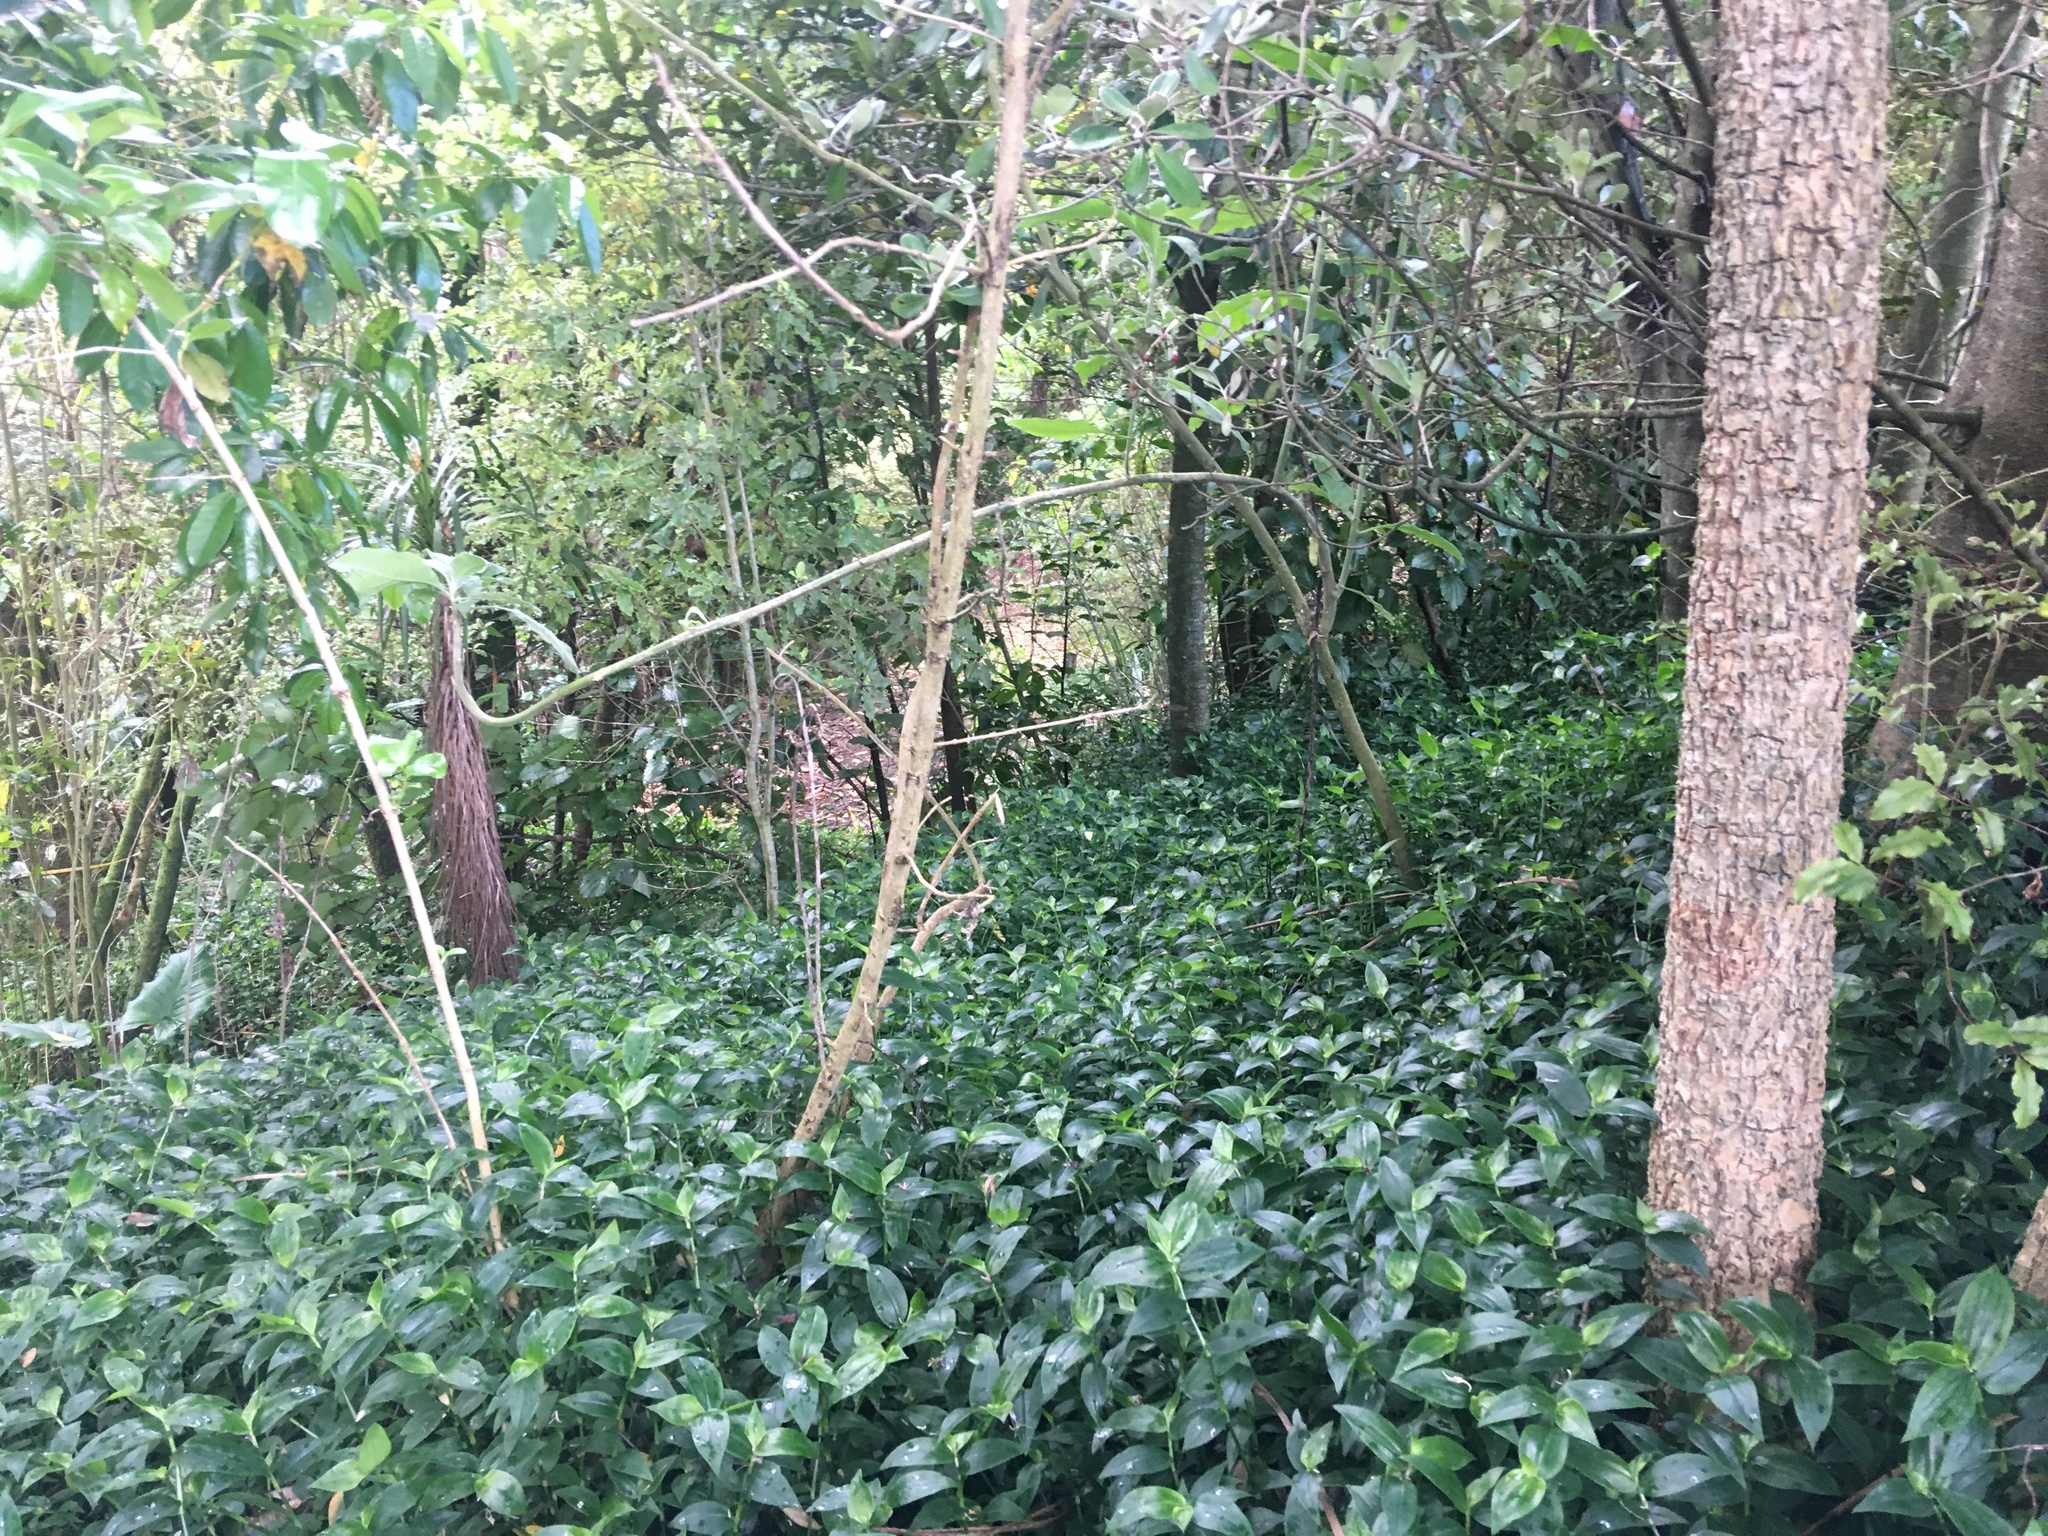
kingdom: Plantae
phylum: Tracheophyta
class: Liliopsida
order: Commelinales
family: Commelinaceae
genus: Tradescantia
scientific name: Tradescantia fluminensis
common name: Wandering-jew
